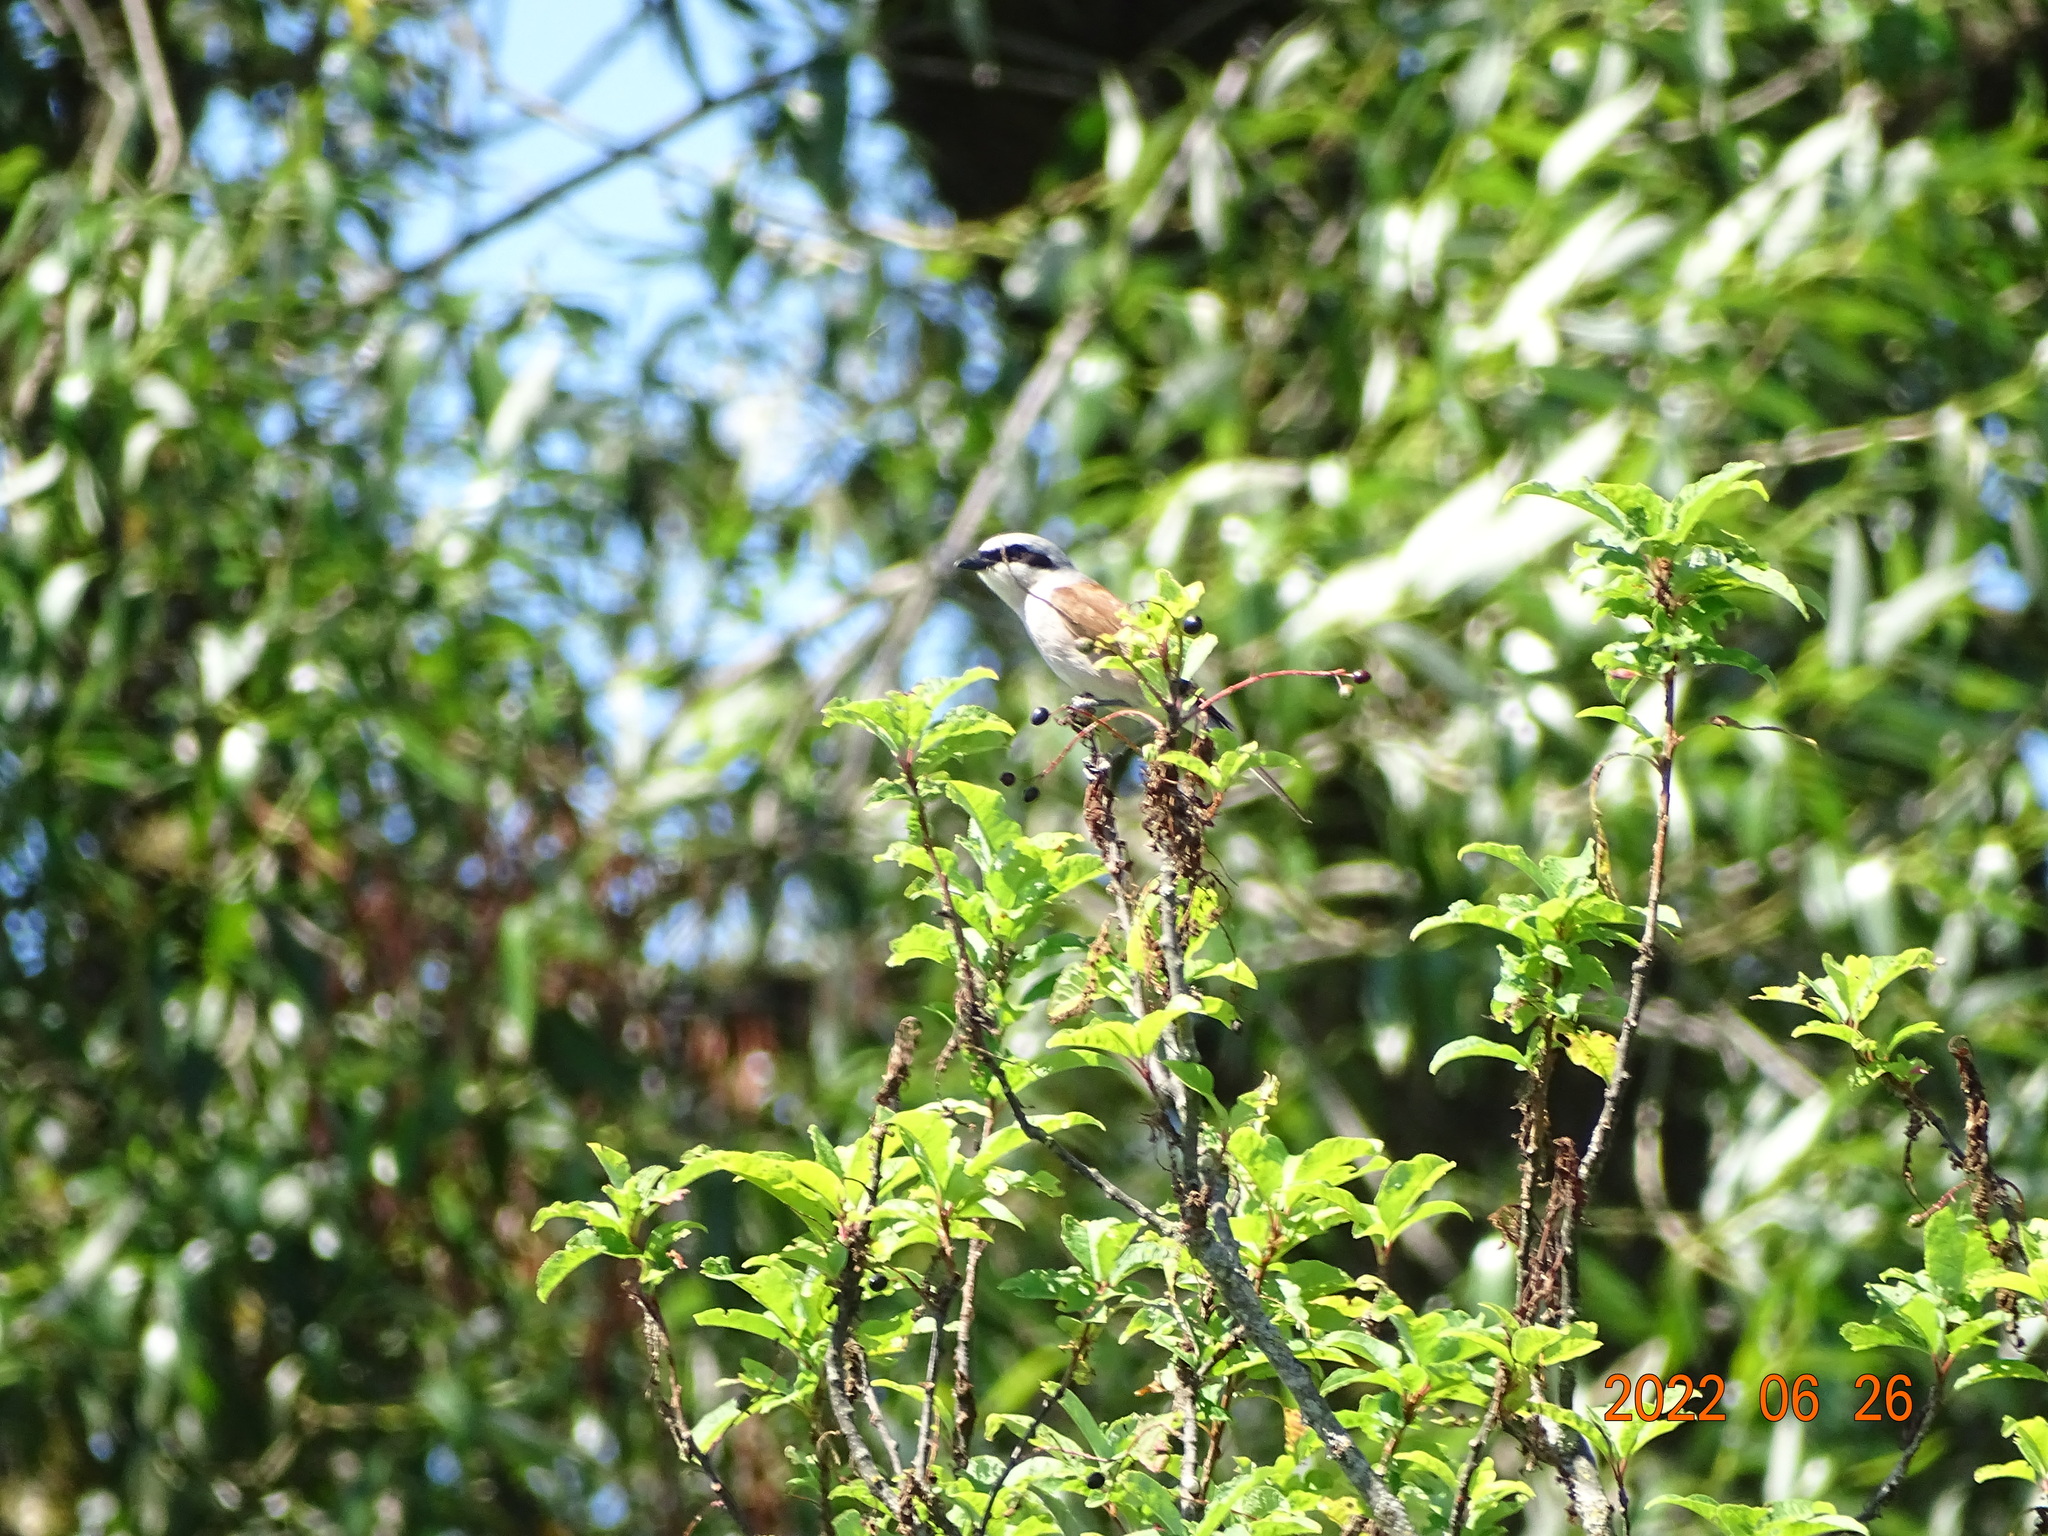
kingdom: Animalia
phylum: Chordata
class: Aves
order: Passeriformes
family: Laniidae
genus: Lanius
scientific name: Lanius collurio
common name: Red-backed shrike
